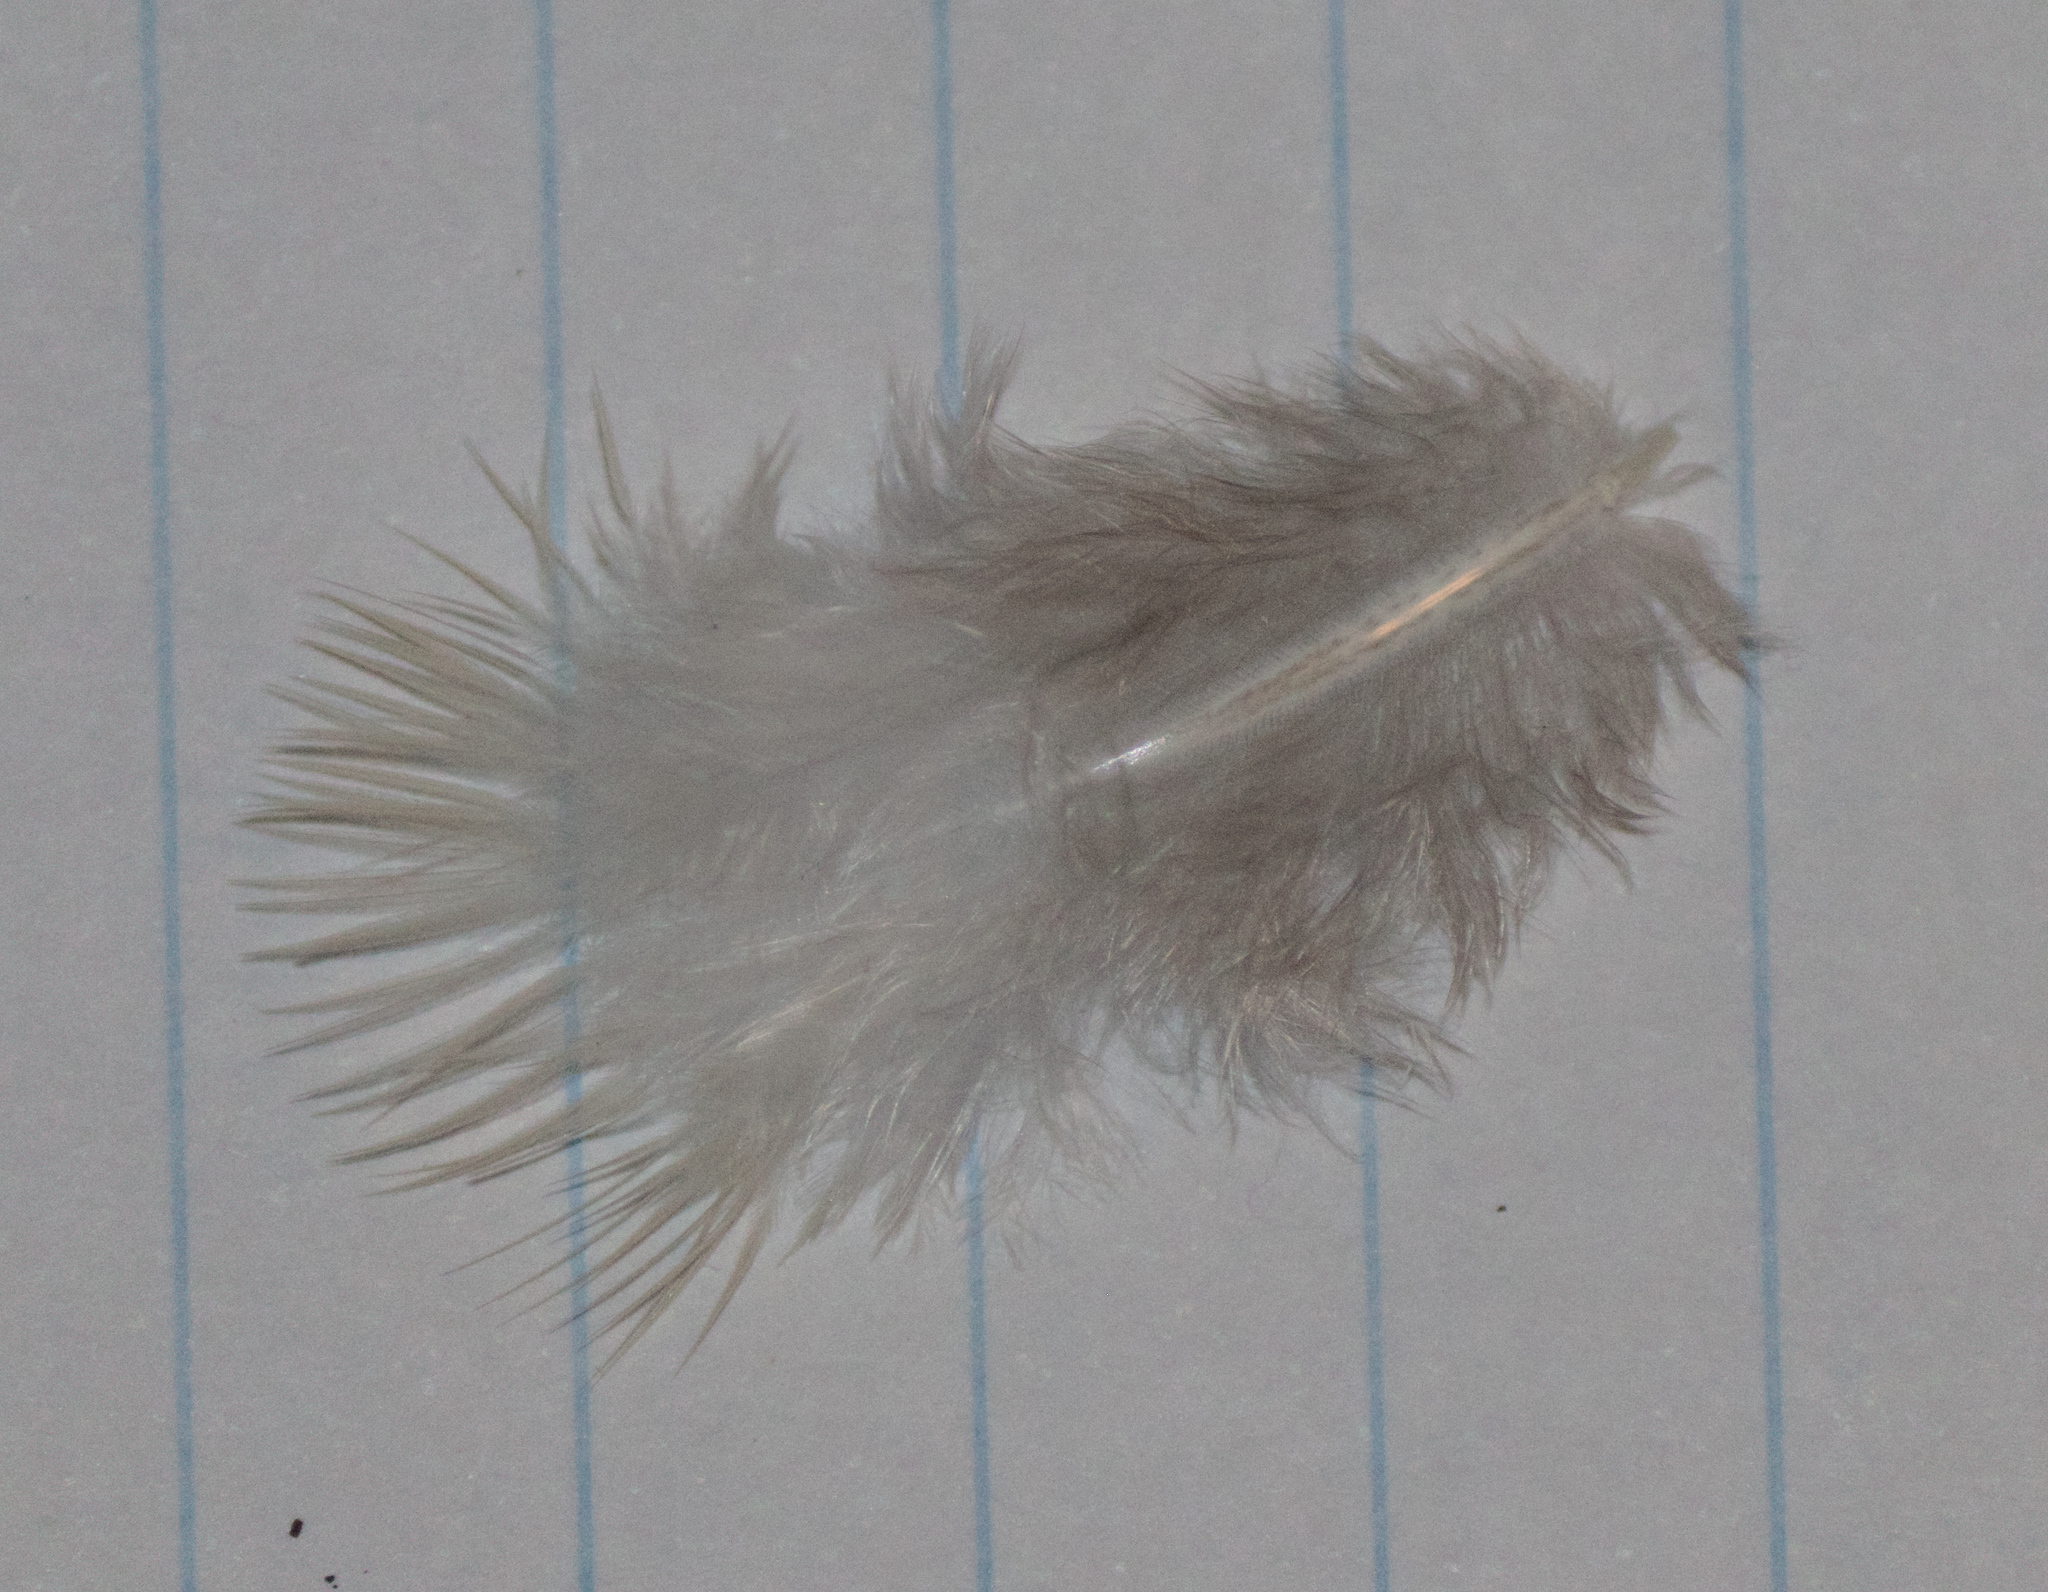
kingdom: Animalia
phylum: Chordata
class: Aves
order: Columbiformes
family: Columbidae
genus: Zenaida
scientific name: Zenaida macroura
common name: Mourning dove
